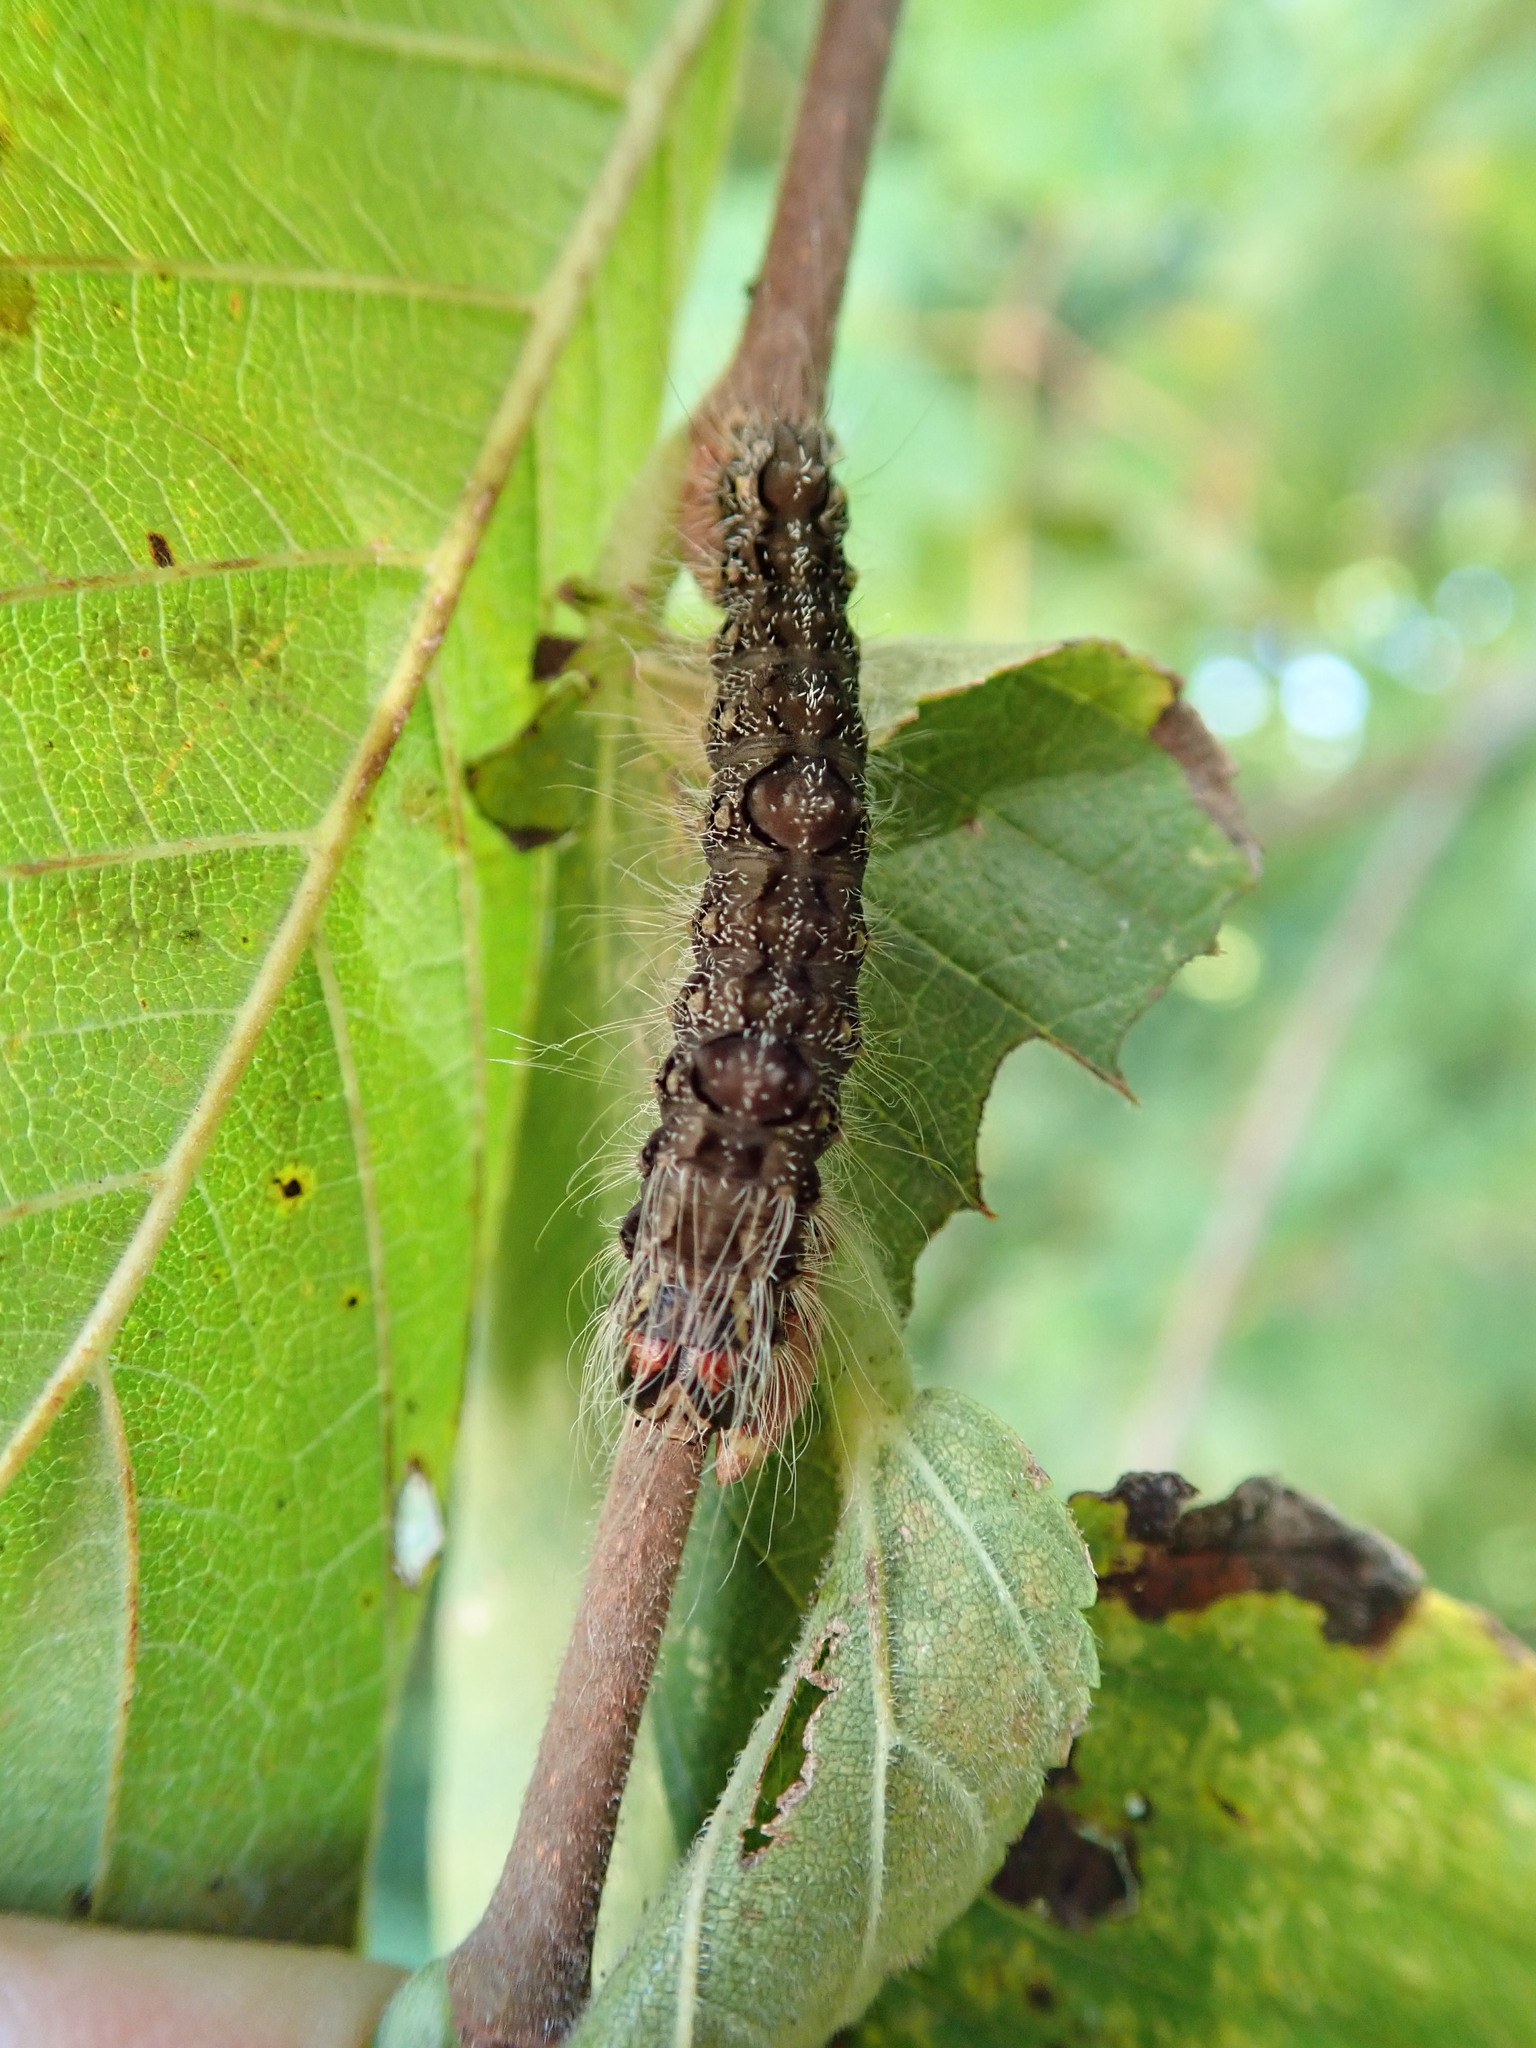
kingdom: Animalia
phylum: Arthropoda
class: Insecta
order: Lepidoptera
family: Noctuidae
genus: Acronicta
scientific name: Acronicta morula
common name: Ochre dagger
